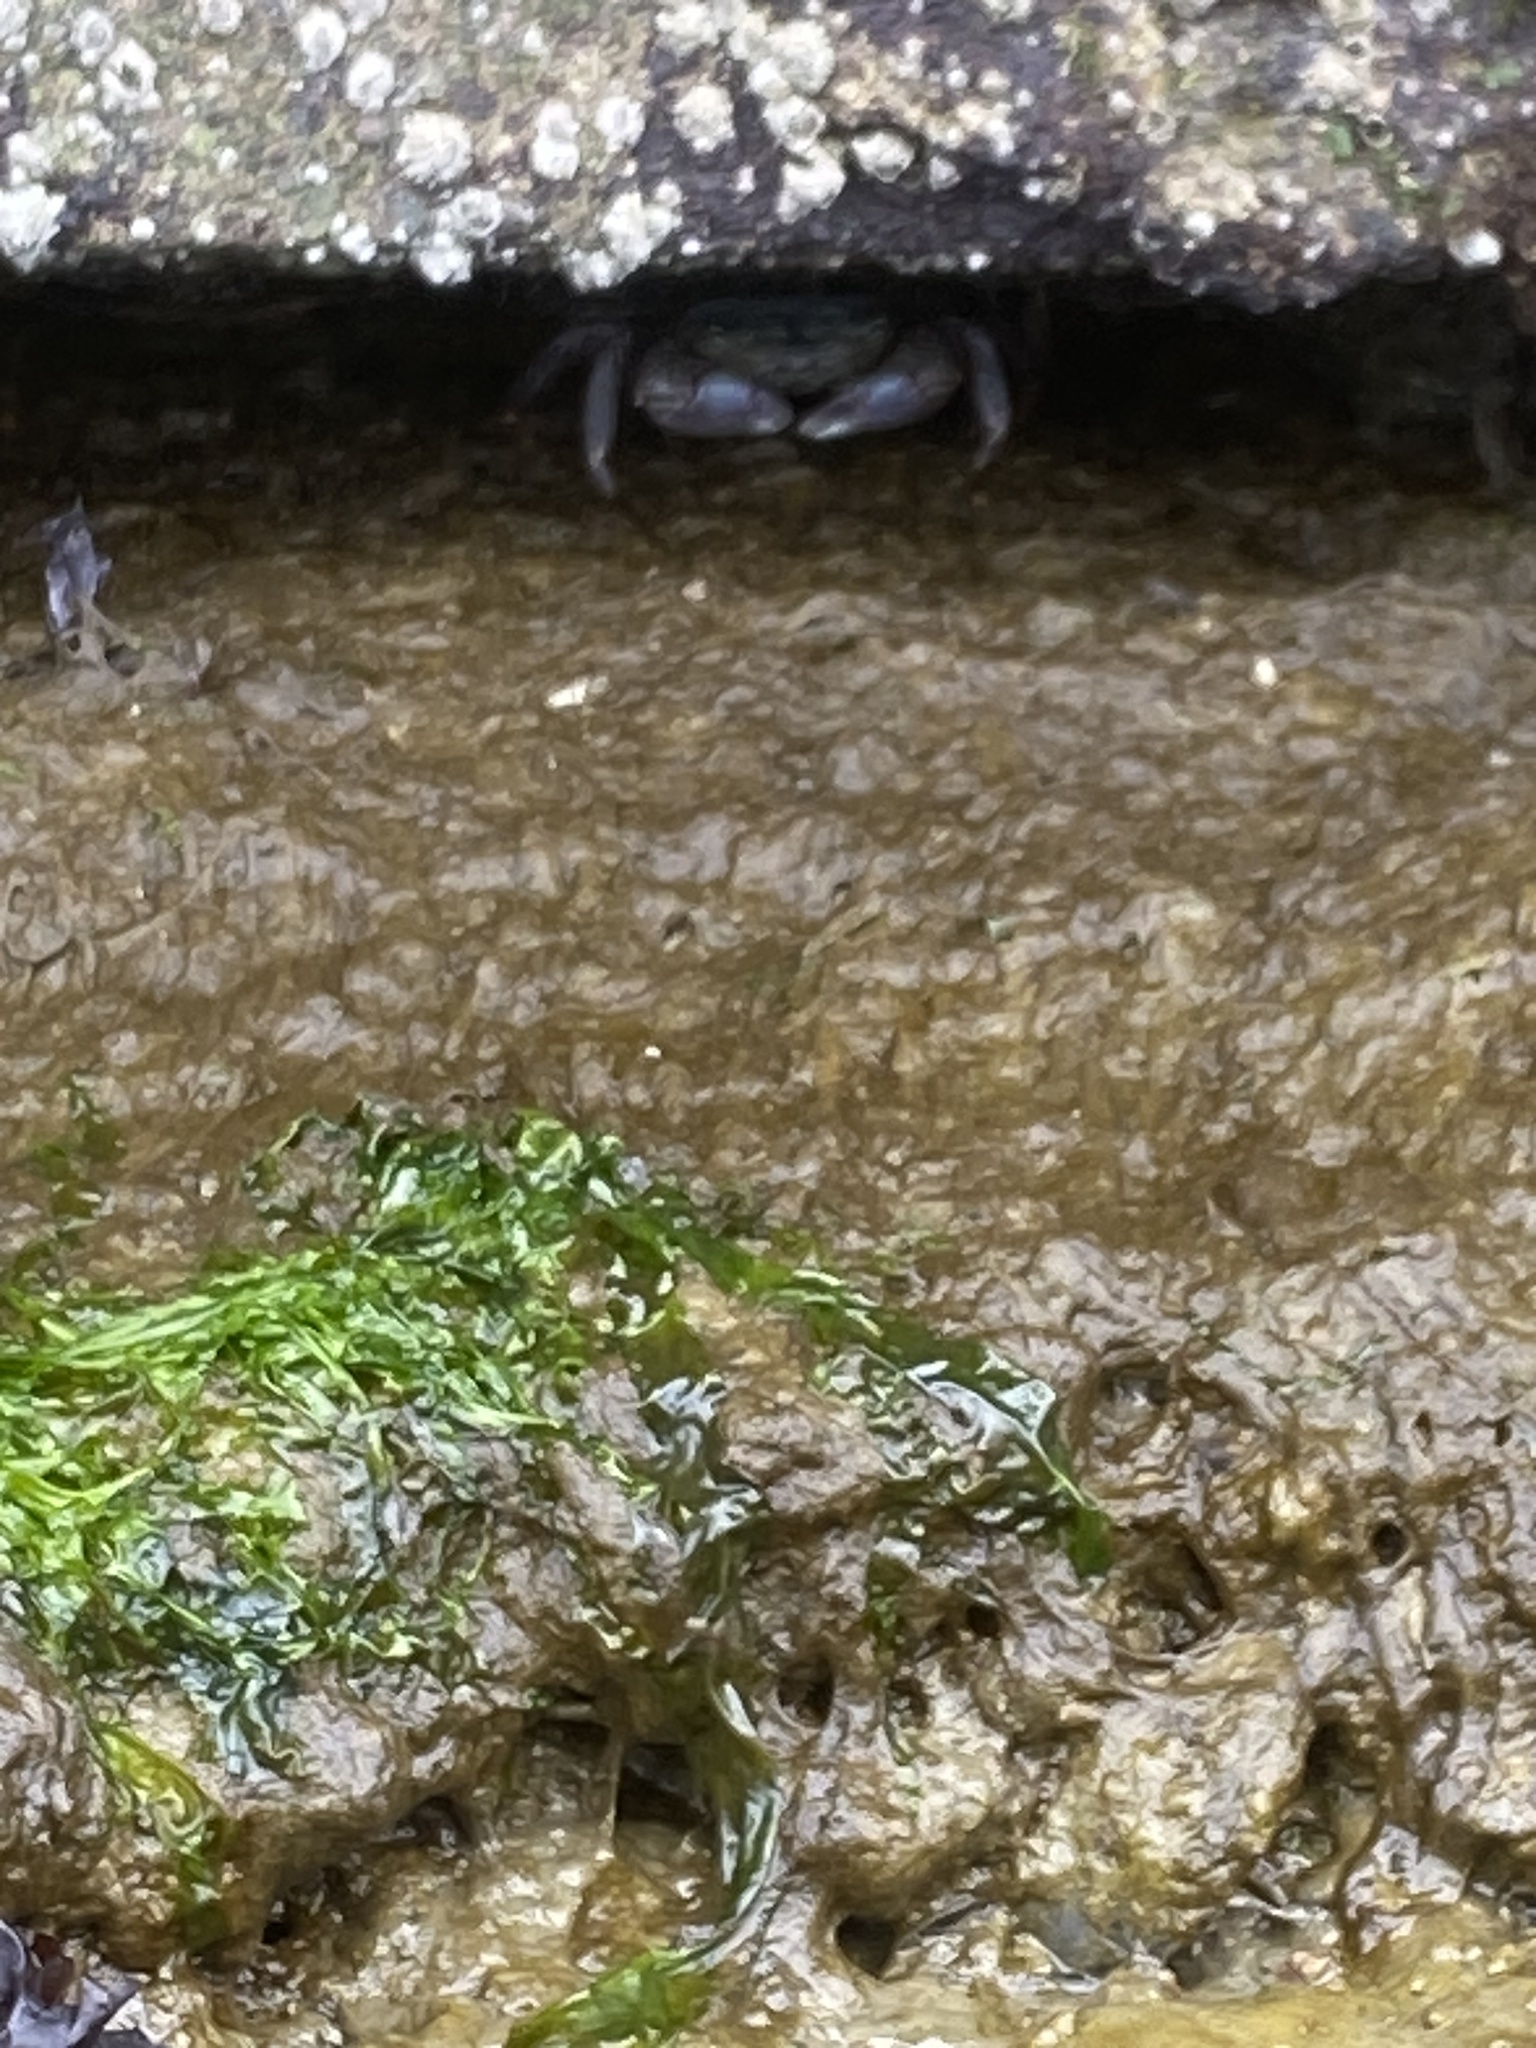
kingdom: Animalia
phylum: Arthropoda
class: Malacostraca
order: Decapoda
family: Grapsidae
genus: Pachygrapsus
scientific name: Pachygrapsus crassipes
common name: Striped shore crab
